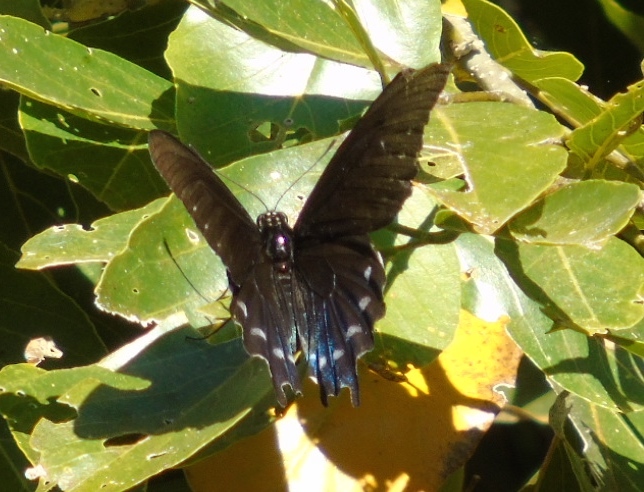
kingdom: Animalia
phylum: Arthropoda
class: Insecta
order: Lepidoptera
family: Papilionidae
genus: Battus
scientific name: Battus philenor
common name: Pipevine swallowtail
